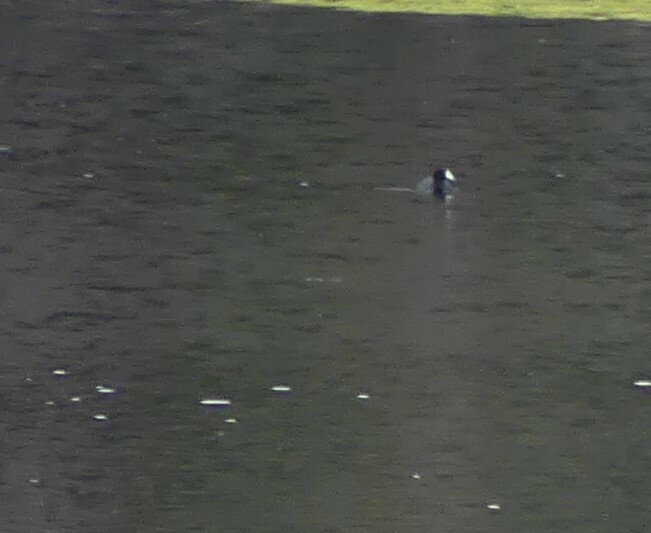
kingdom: Animalia
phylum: Chordata
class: Aves
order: Gruiformes
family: Rallidae
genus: Fulica
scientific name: Fulica americana
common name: American coot
